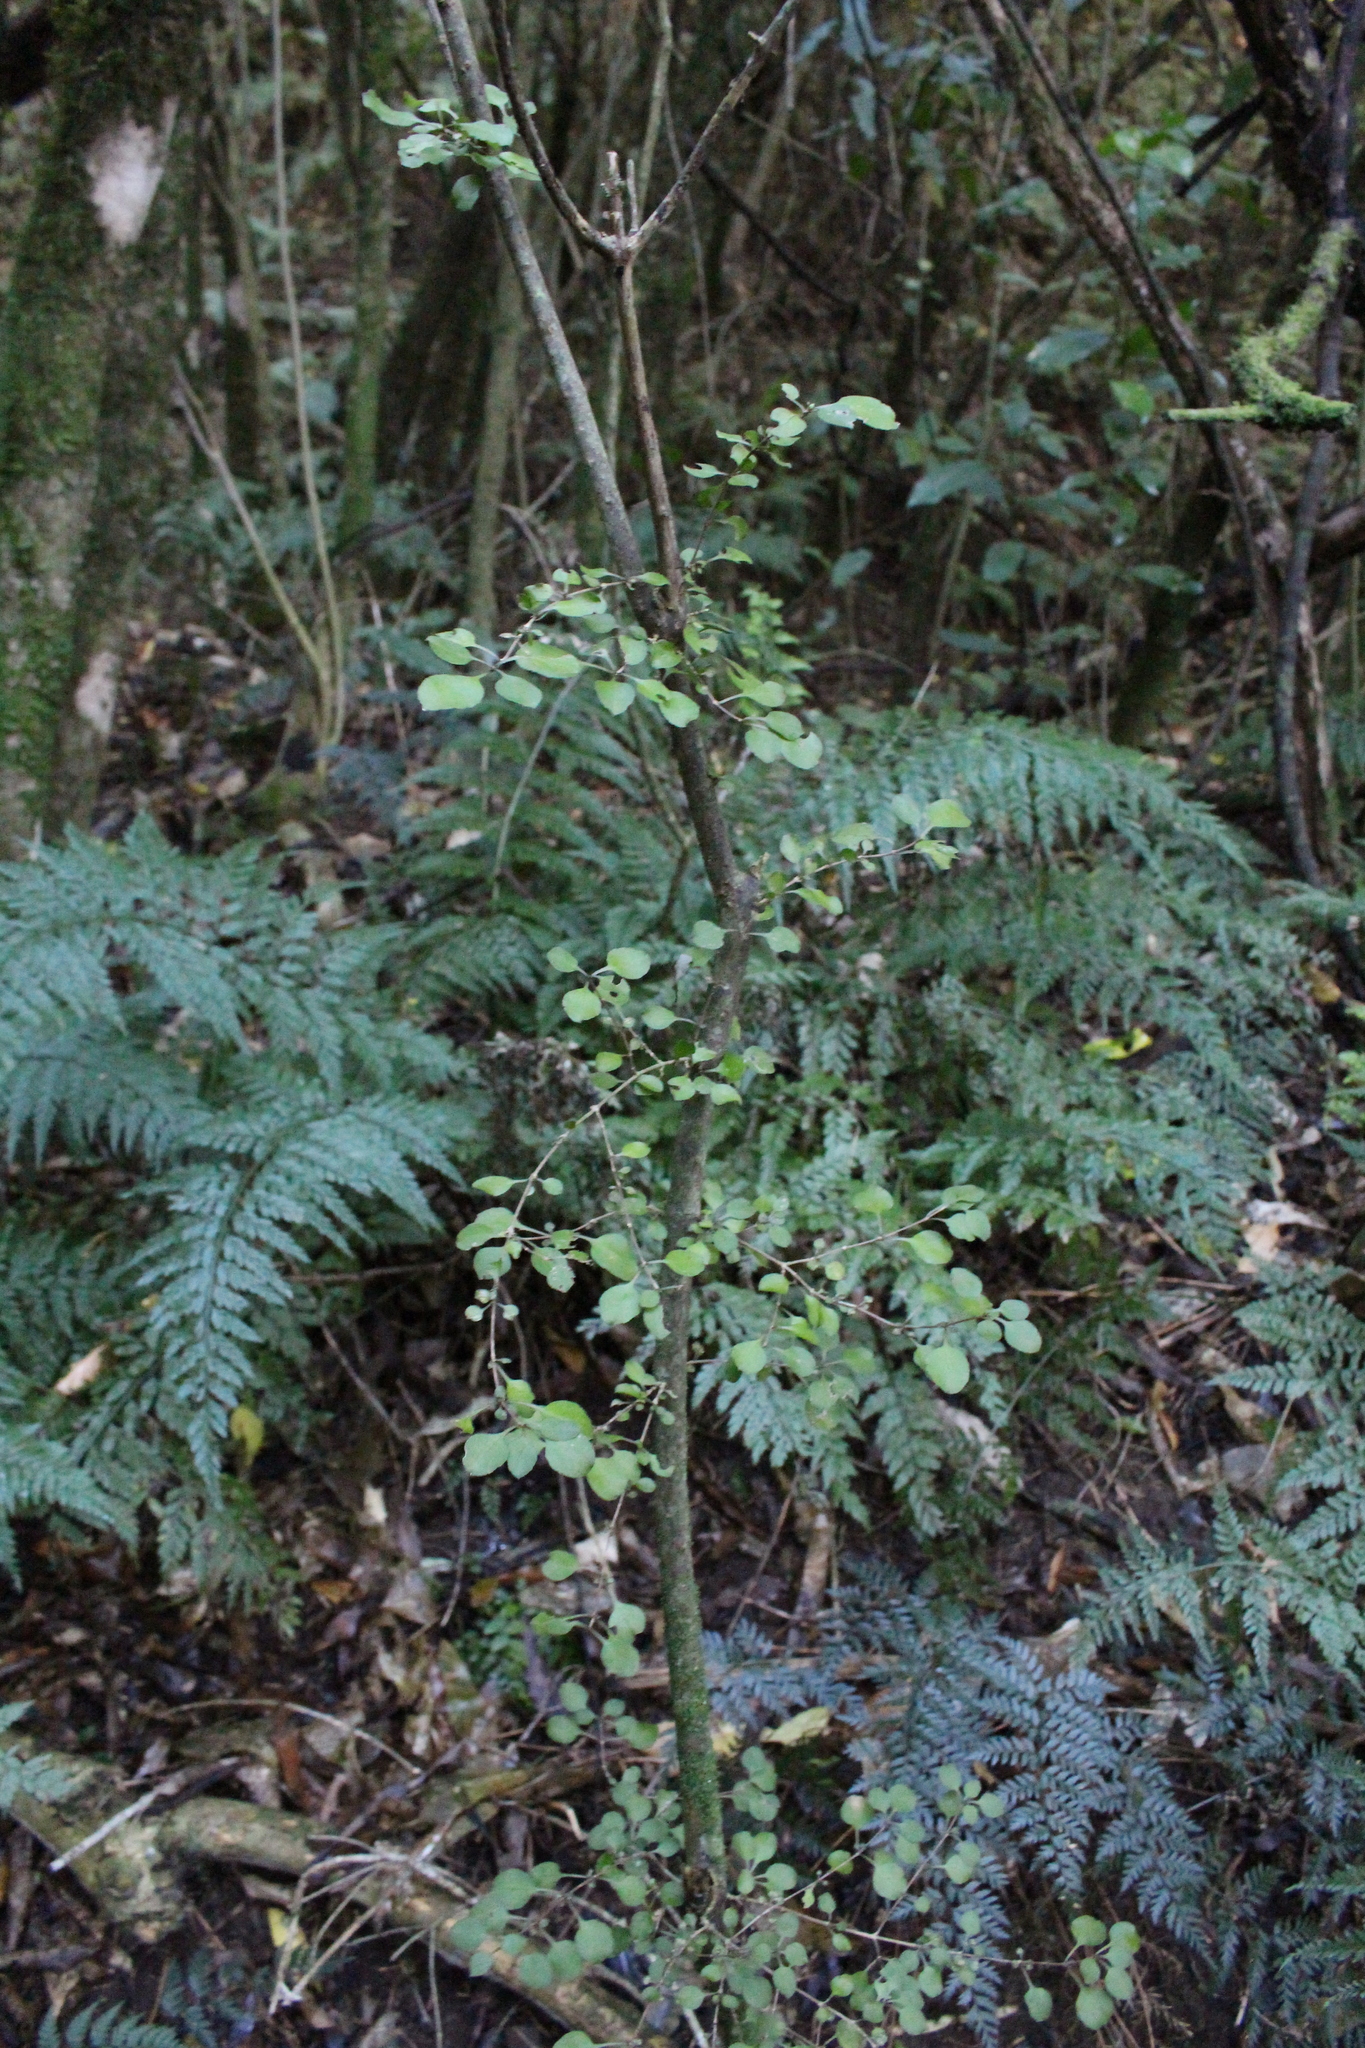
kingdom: Plantae
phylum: Tracheophyta
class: Magnoliopsida
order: Gentianales
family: Rubiaceae
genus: Coprosma
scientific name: Coprosma rotundifolia
